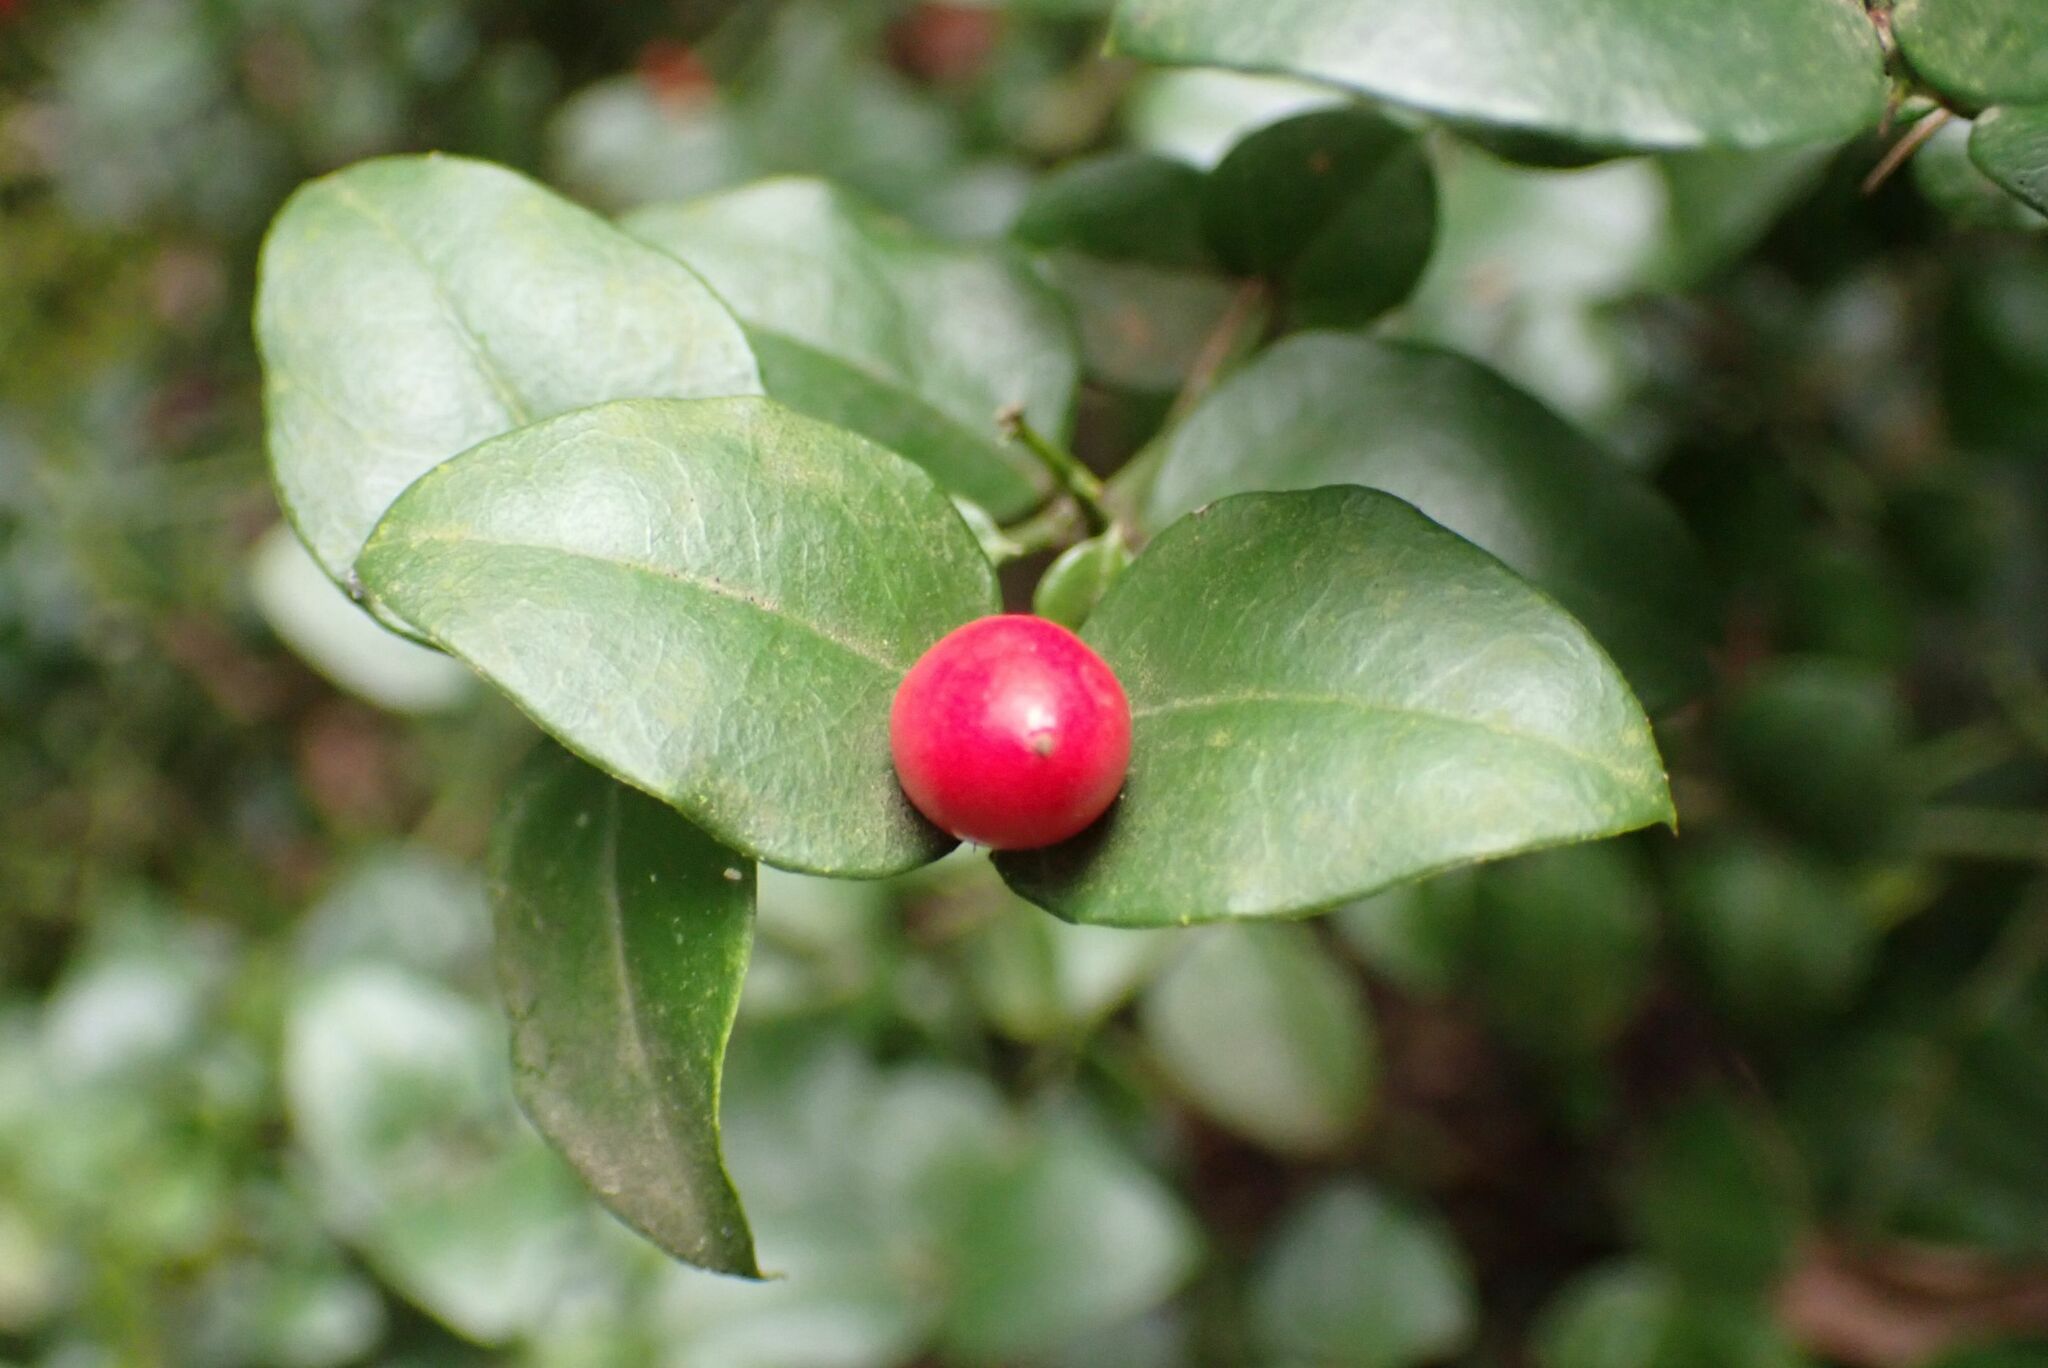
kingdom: Plantae
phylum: Tracheophyta
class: Magnoliopsida
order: Gentianales
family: Apocynaceae
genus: Carissa
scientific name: Carissa bispinosa
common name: Forest num-num
